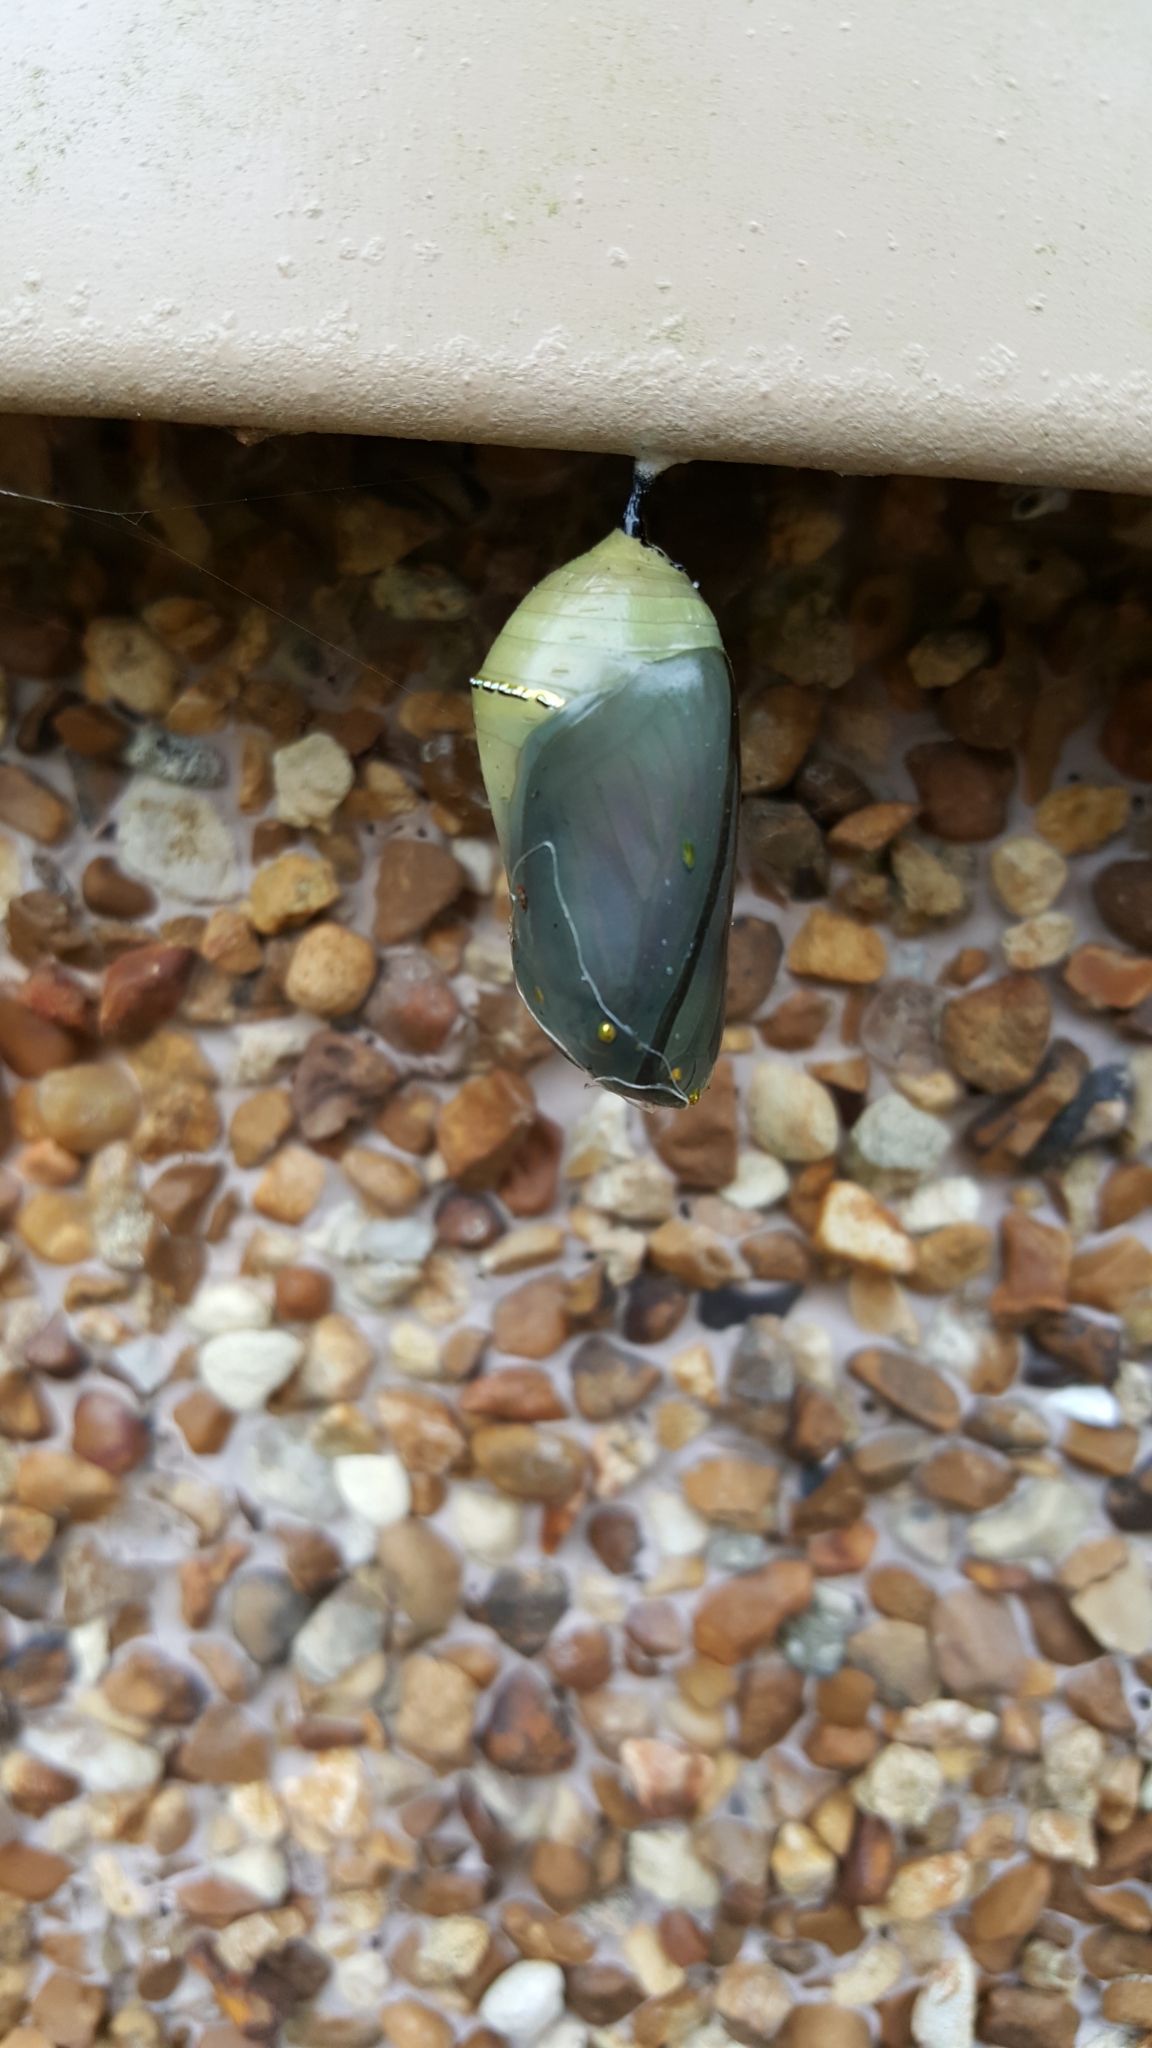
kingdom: Animalia
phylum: Arthropoda
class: Insecta
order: Lepidoptera
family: Nymphalidae
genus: Danaus
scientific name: Danaus plexippus
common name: Monarch
